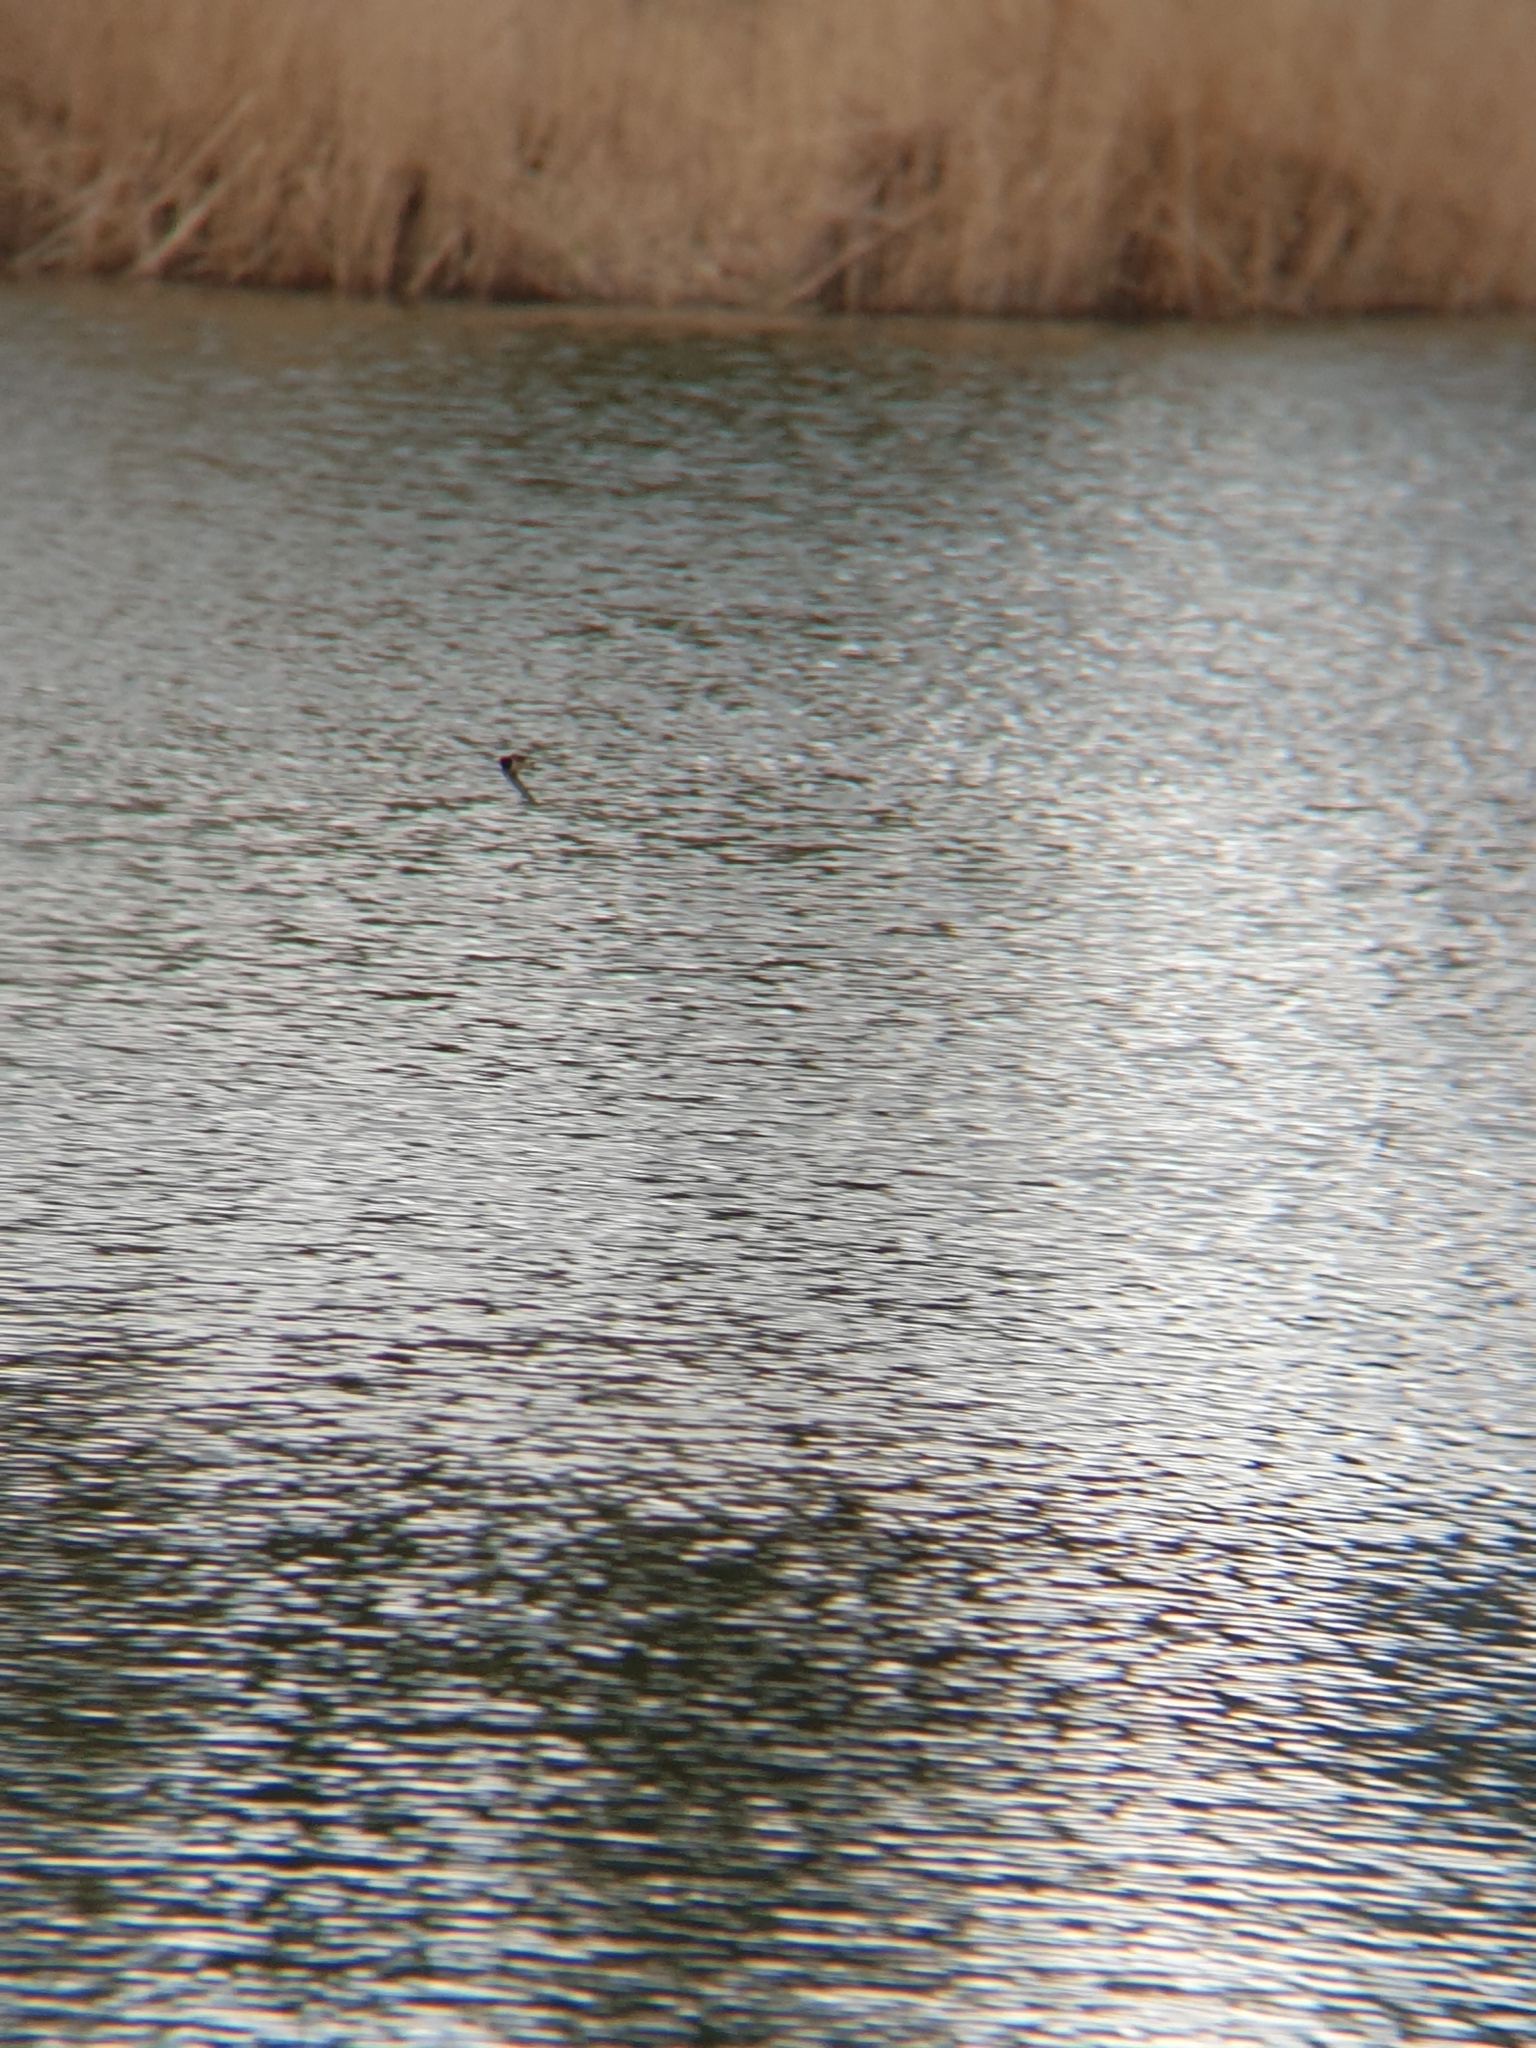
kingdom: Animalia
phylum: Chordata
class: Aves
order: Passeriformes
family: Hirundinidae
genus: Hirundo
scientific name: Hirundo rustica
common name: Barn swallow
